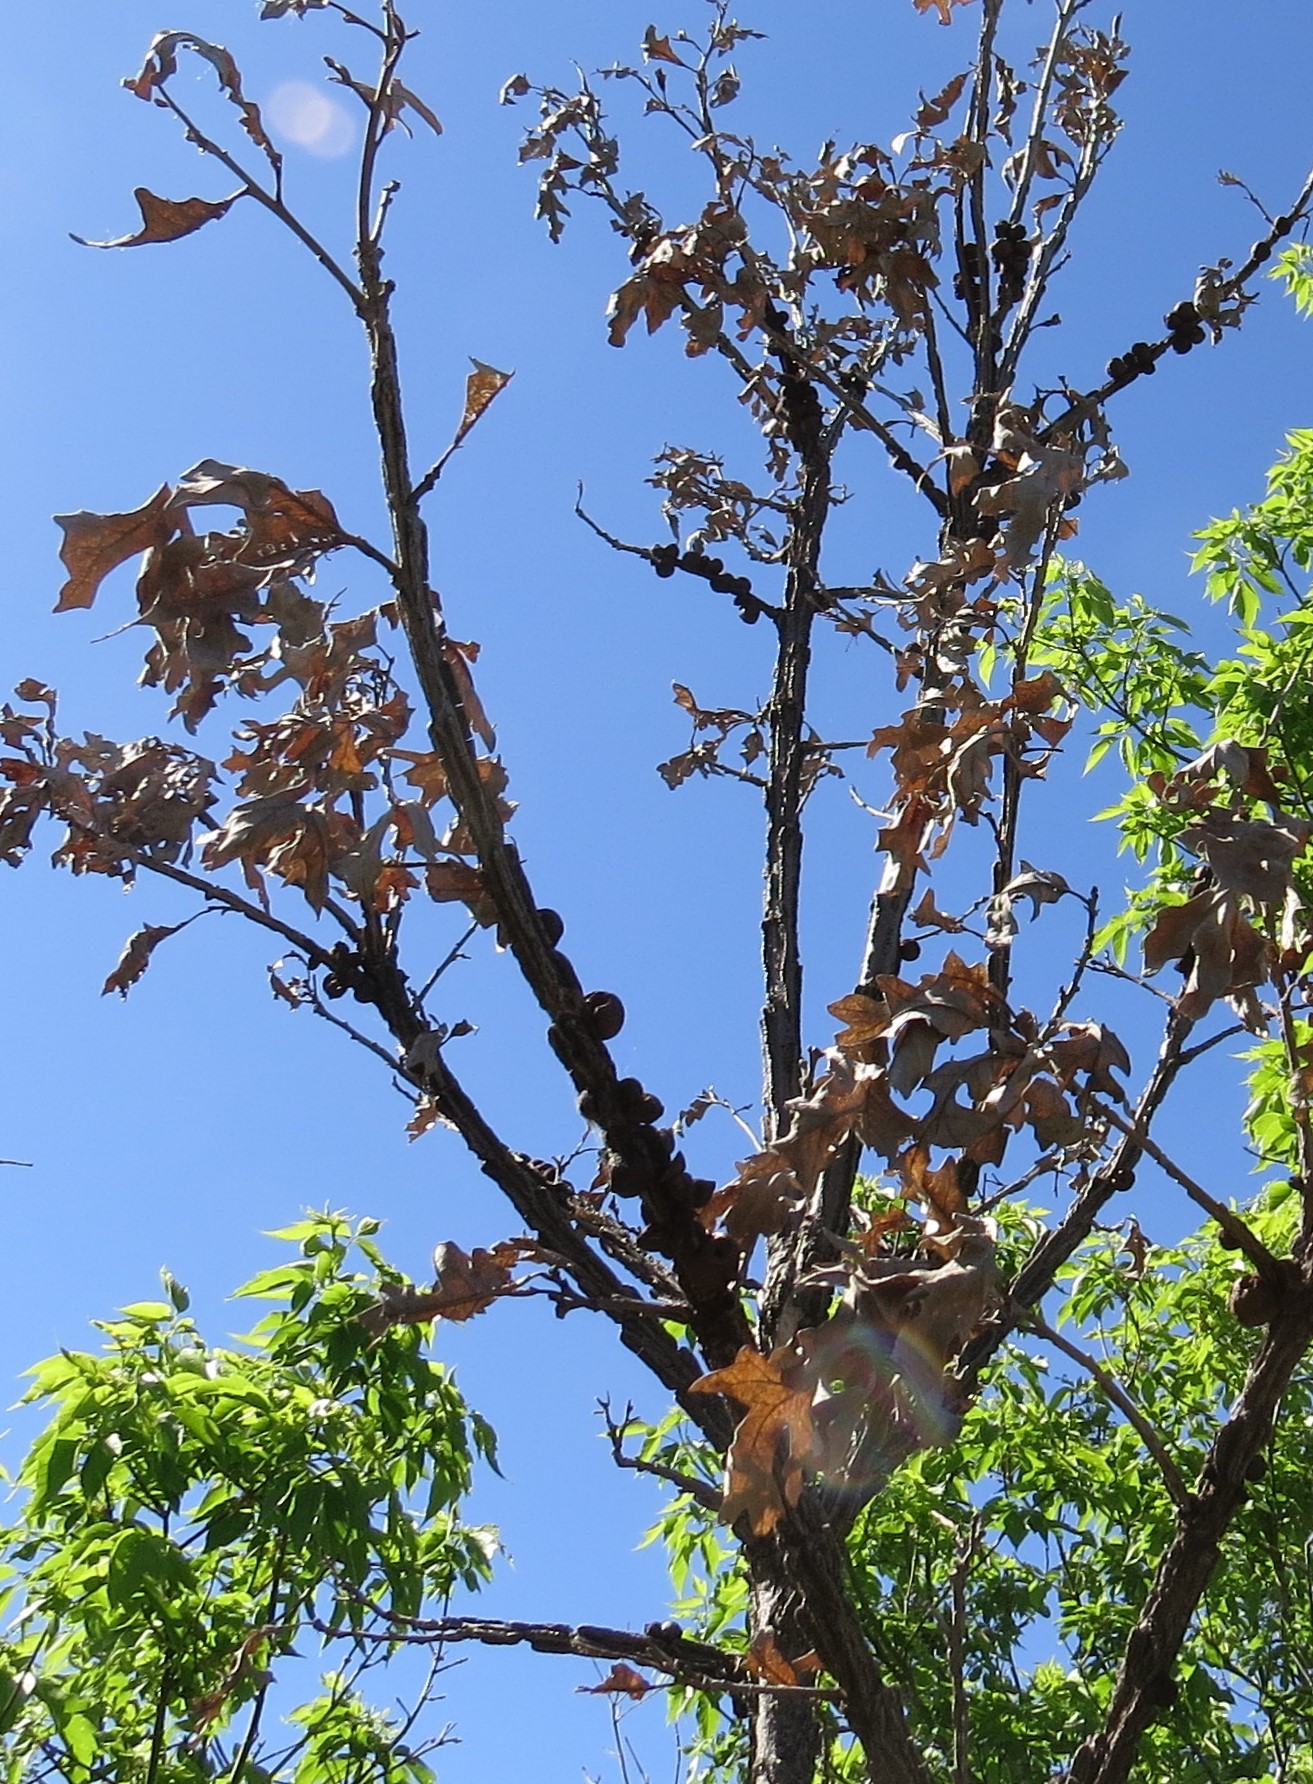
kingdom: Animalia
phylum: Arthropoda
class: Insecta
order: Hymenoptera
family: Cynipidae
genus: Disholcaspis
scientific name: Disholcaspis
